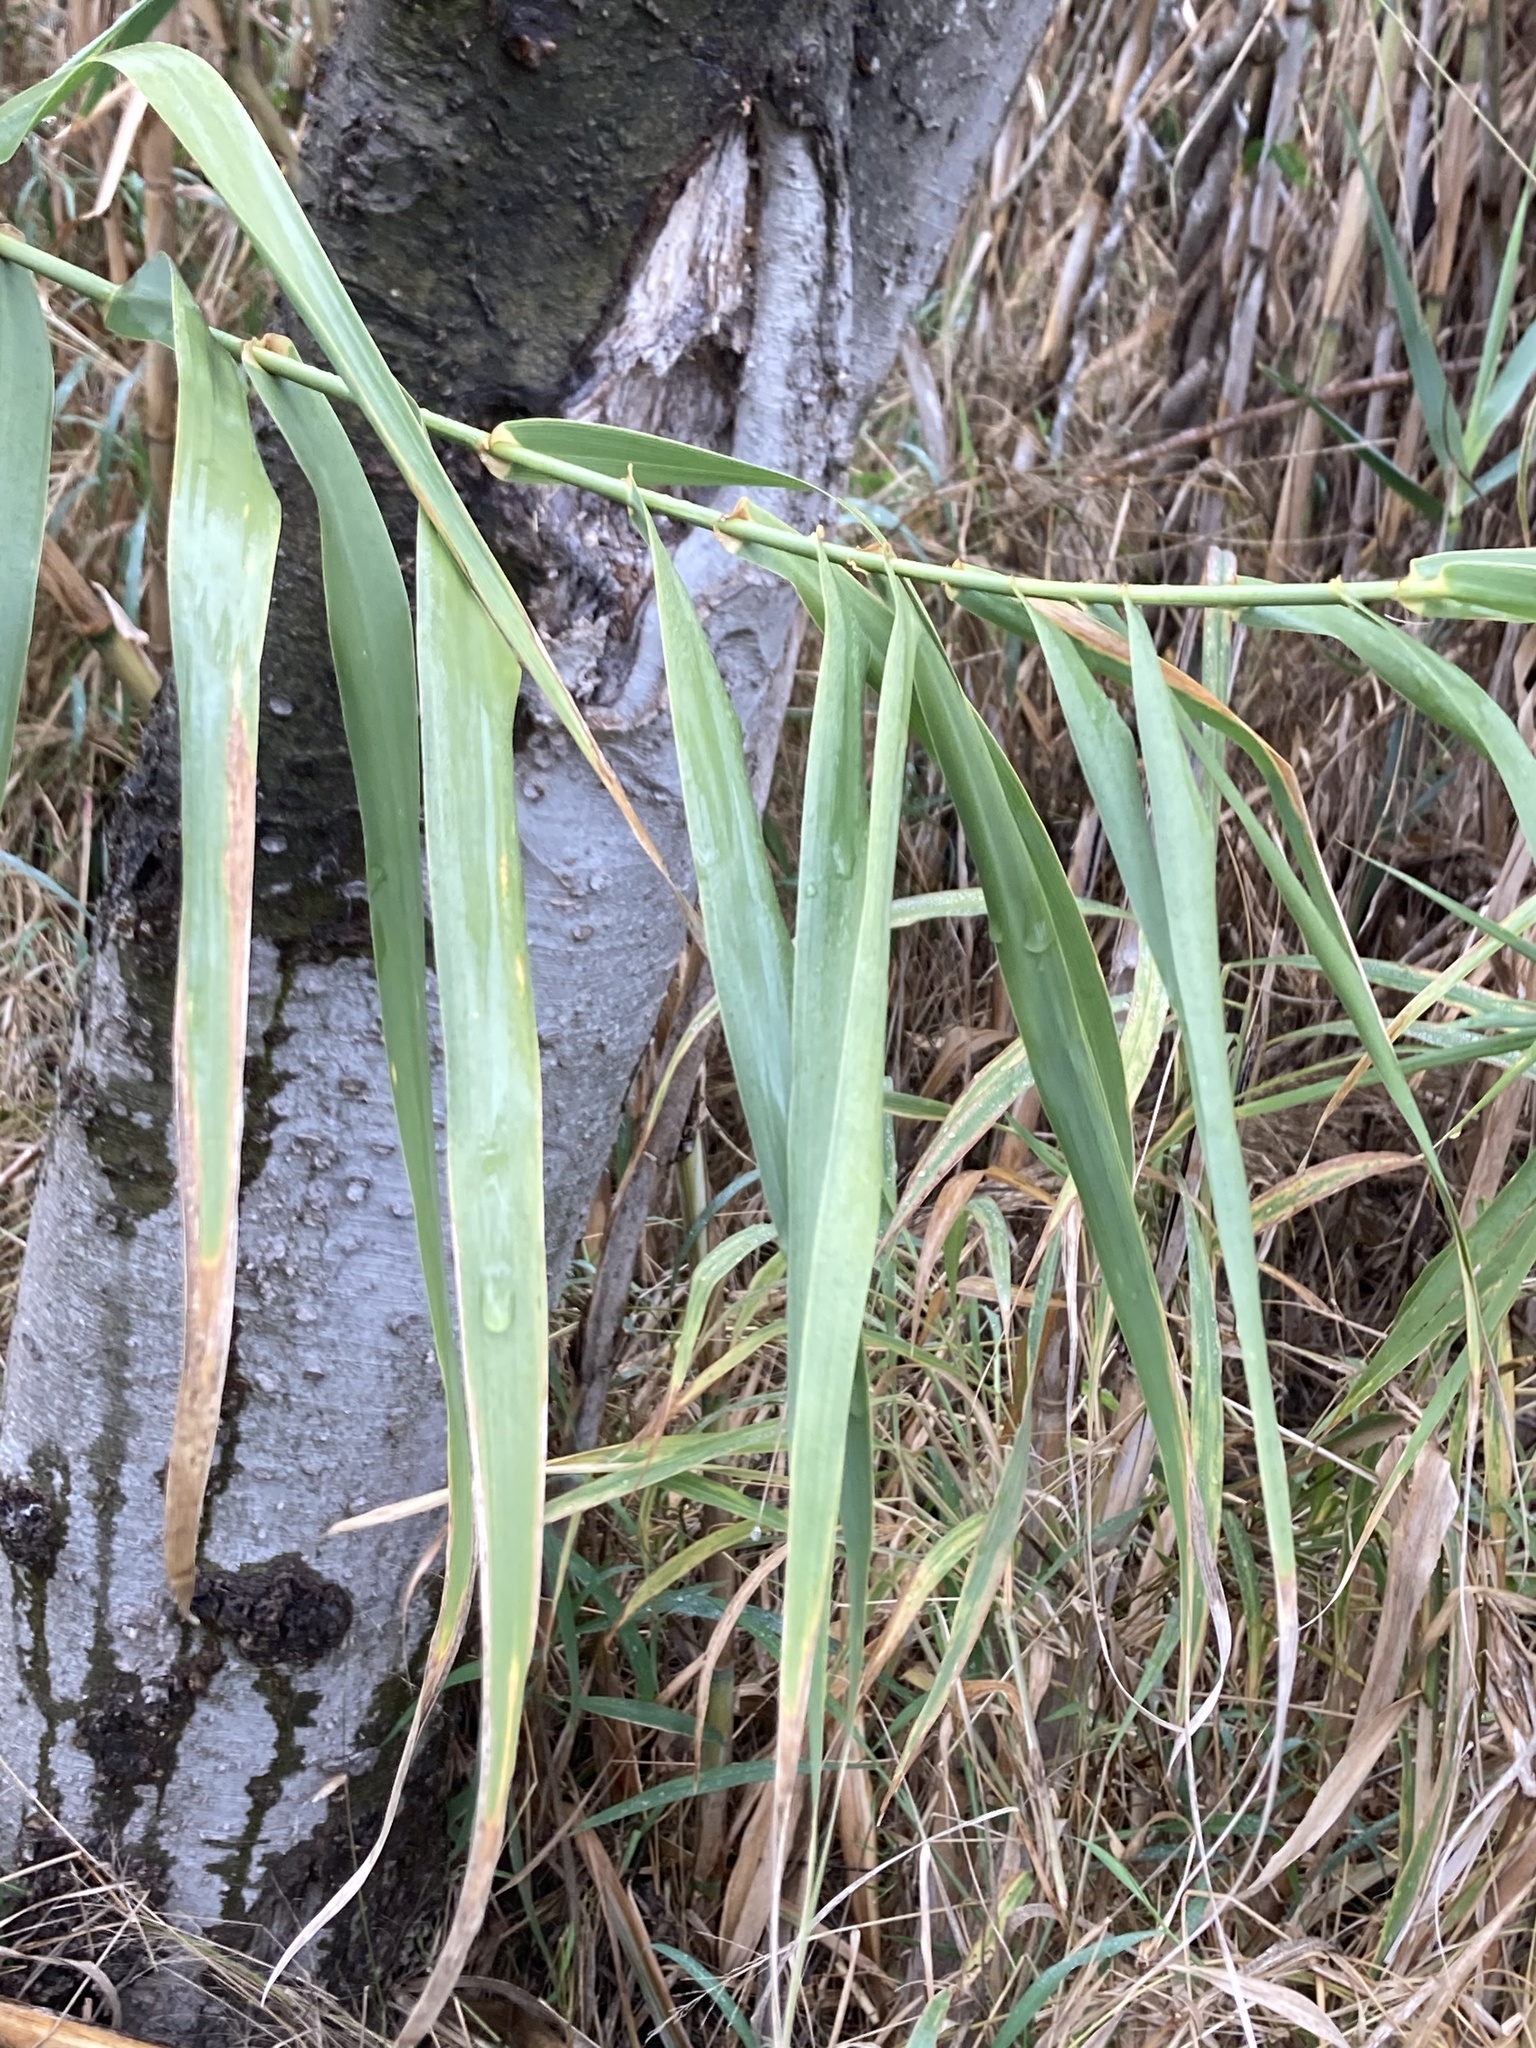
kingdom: Plantae
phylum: Tracheophyta
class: Liliopsida
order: Poales
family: Poaceae
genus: Arundo
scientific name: Arundo donax
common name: Giant reed
